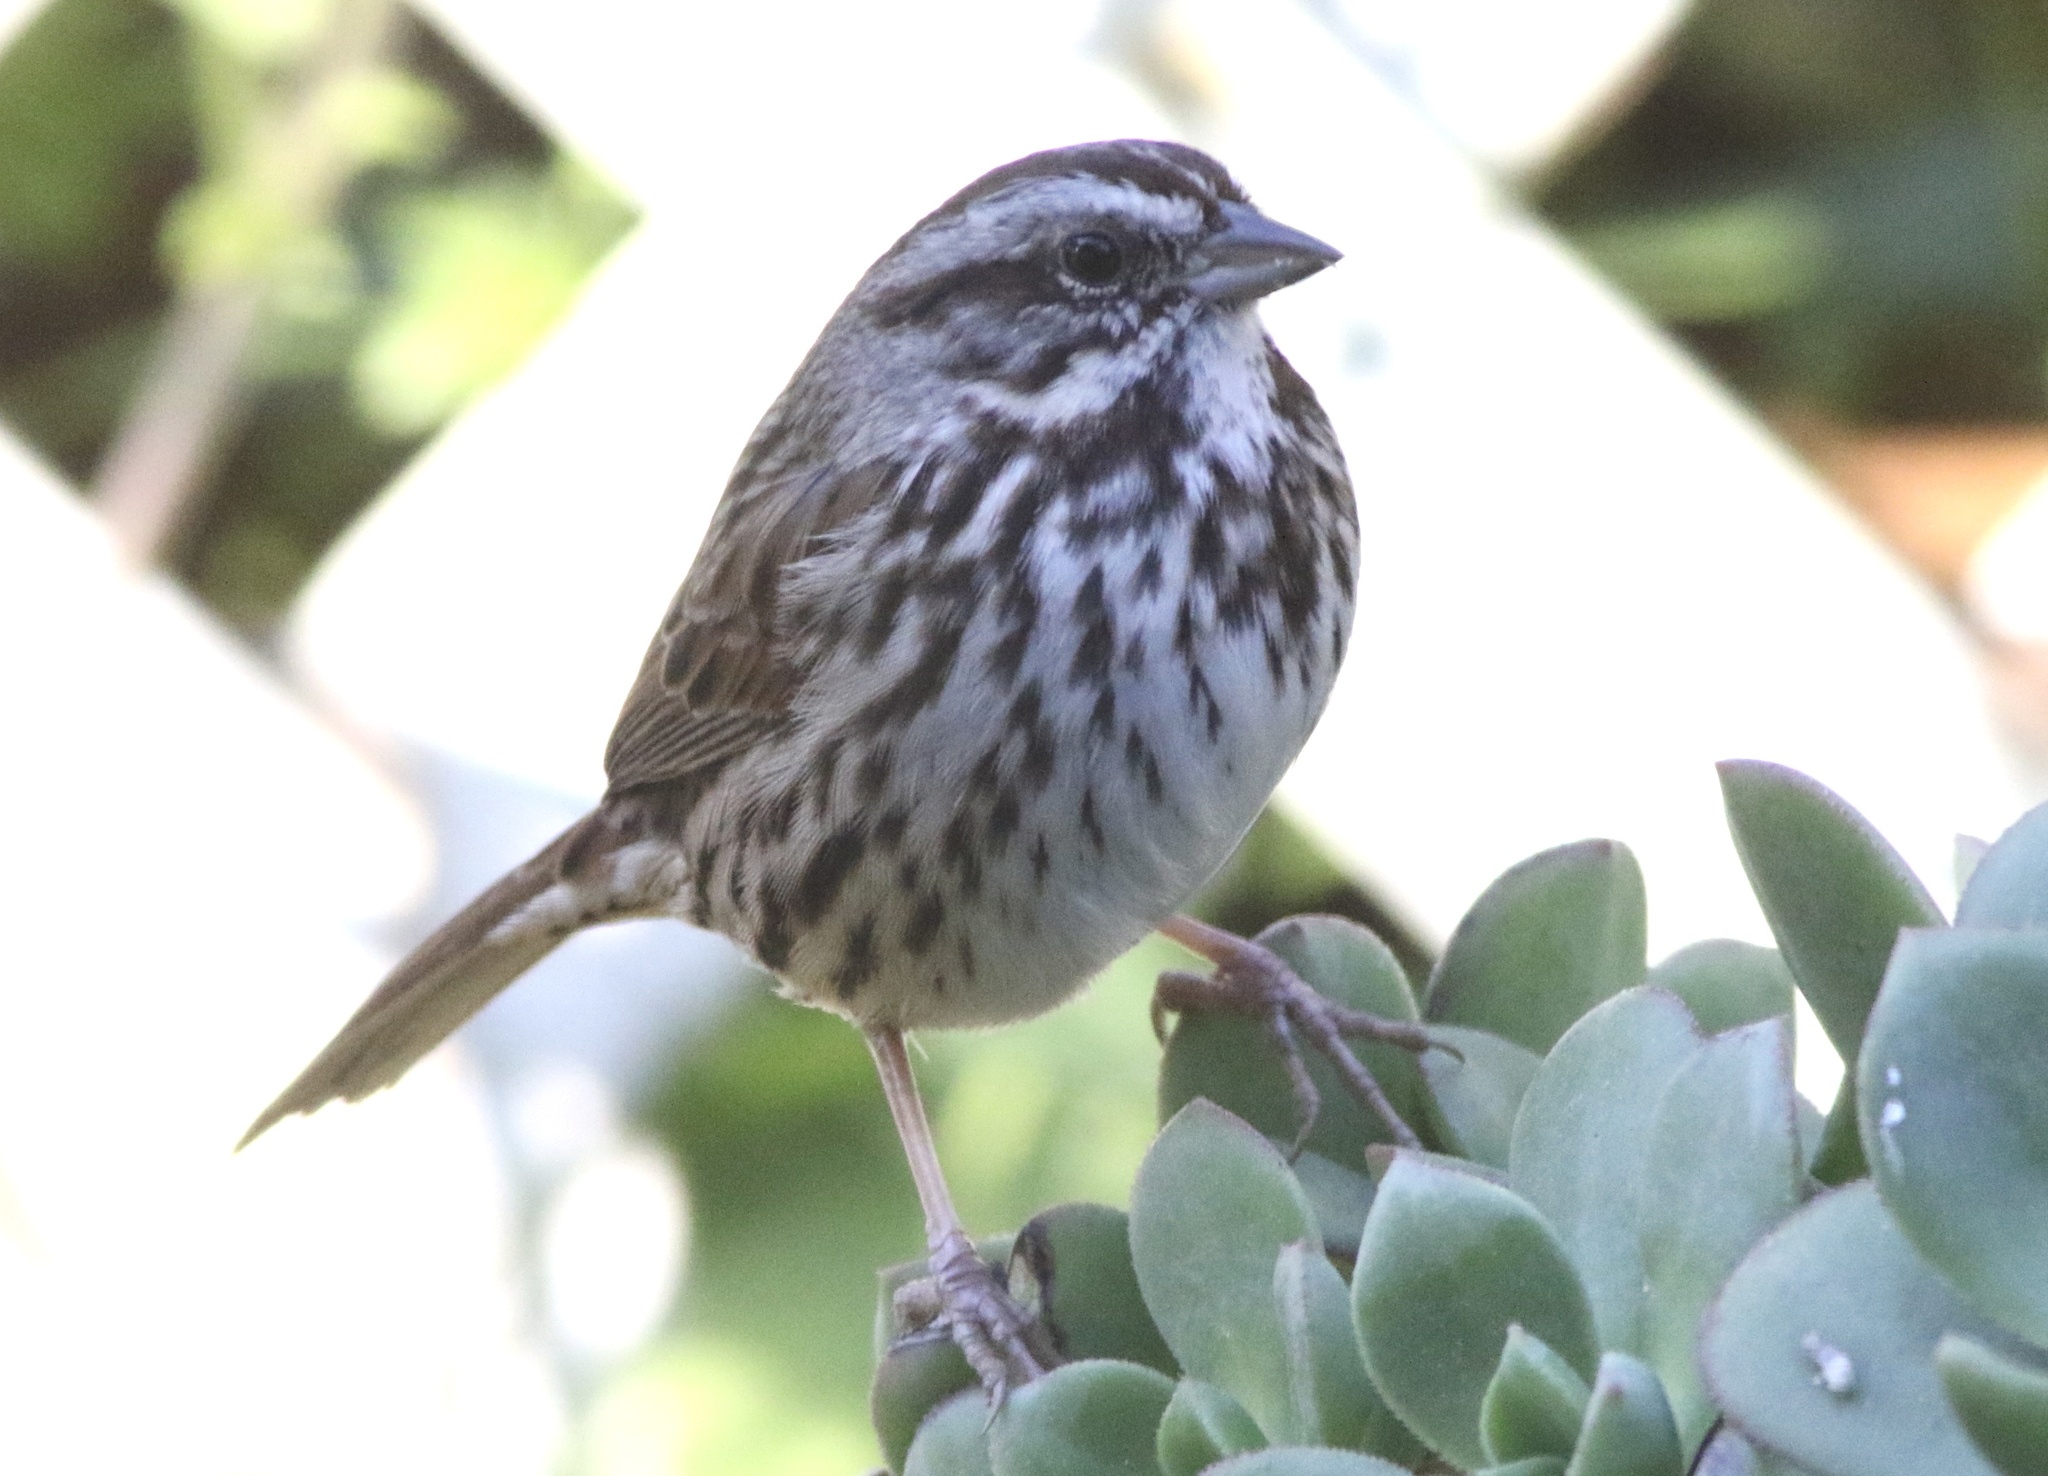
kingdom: Animalia
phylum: Chordata
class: Aves
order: Passeriformes
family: Passerellidae
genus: Melospiza
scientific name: Melospiza melodia
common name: Song sparrow
